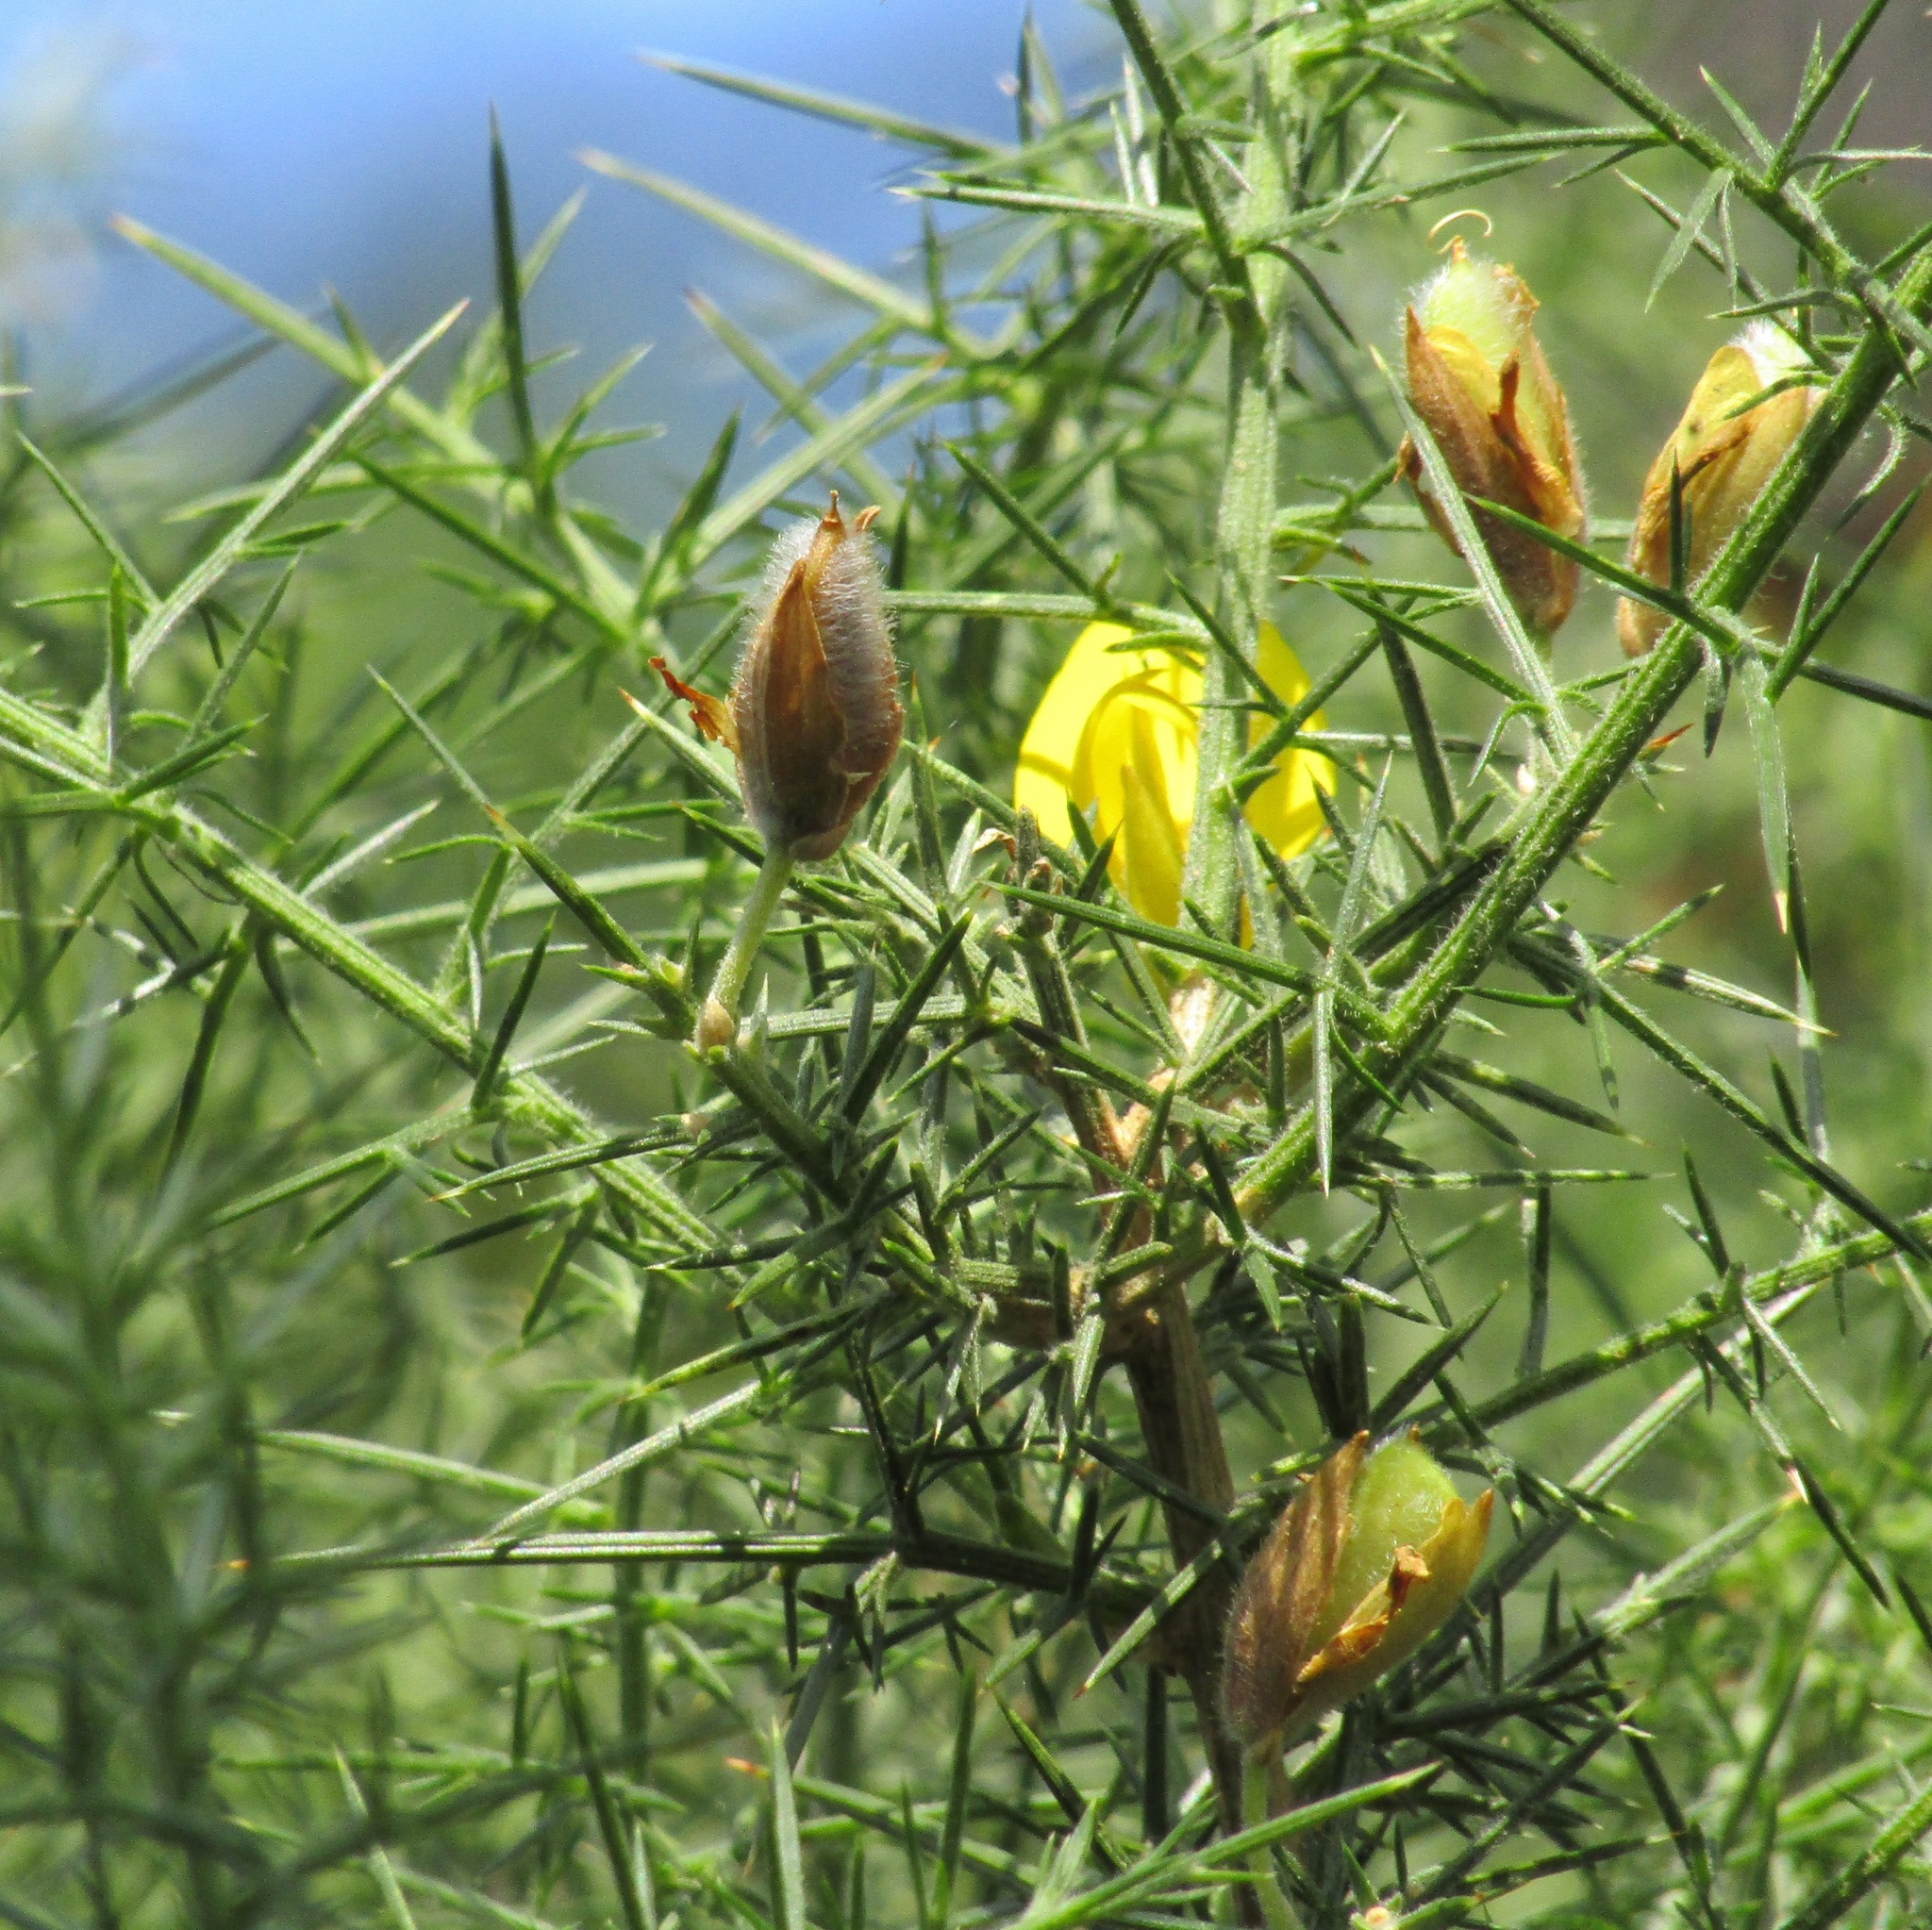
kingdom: Plantae
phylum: Tracheophyta
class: Magnoliopsida
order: Fabales
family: Fabaceae
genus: Ulex
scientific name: Ulex europaeus
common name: Common gorse
